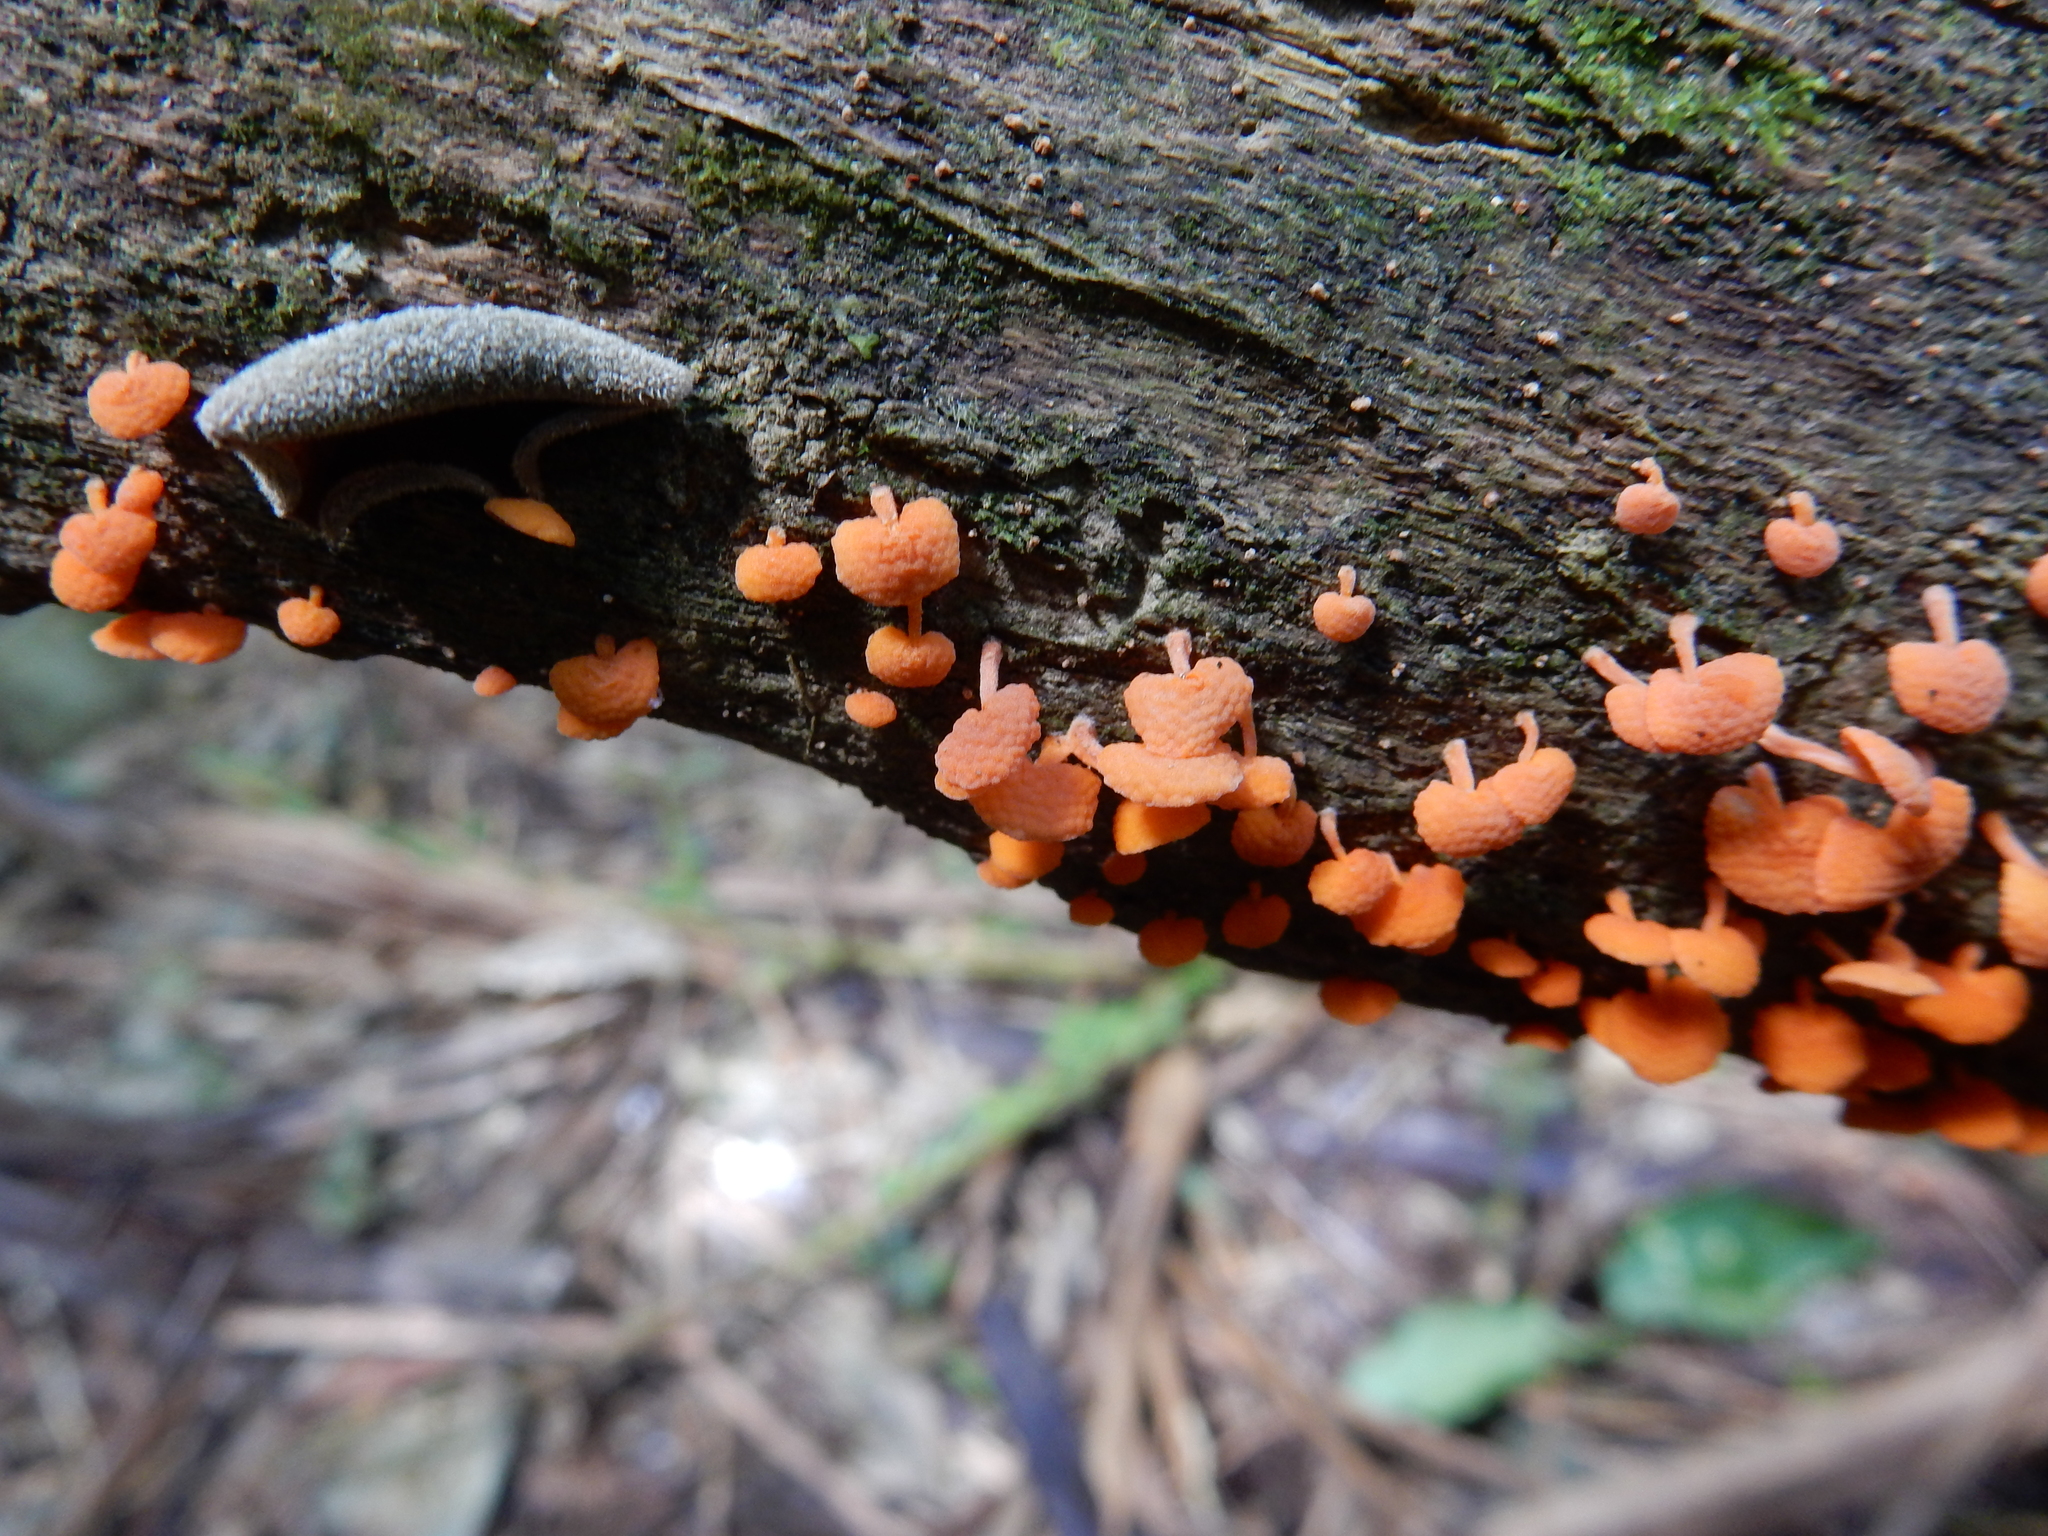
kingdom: Fungi
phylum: Basidiomycota
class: Agaricomycetes
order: Agaricales
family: Mycenaceae
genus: Favolaschia
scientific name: Favolaschia claudopus
